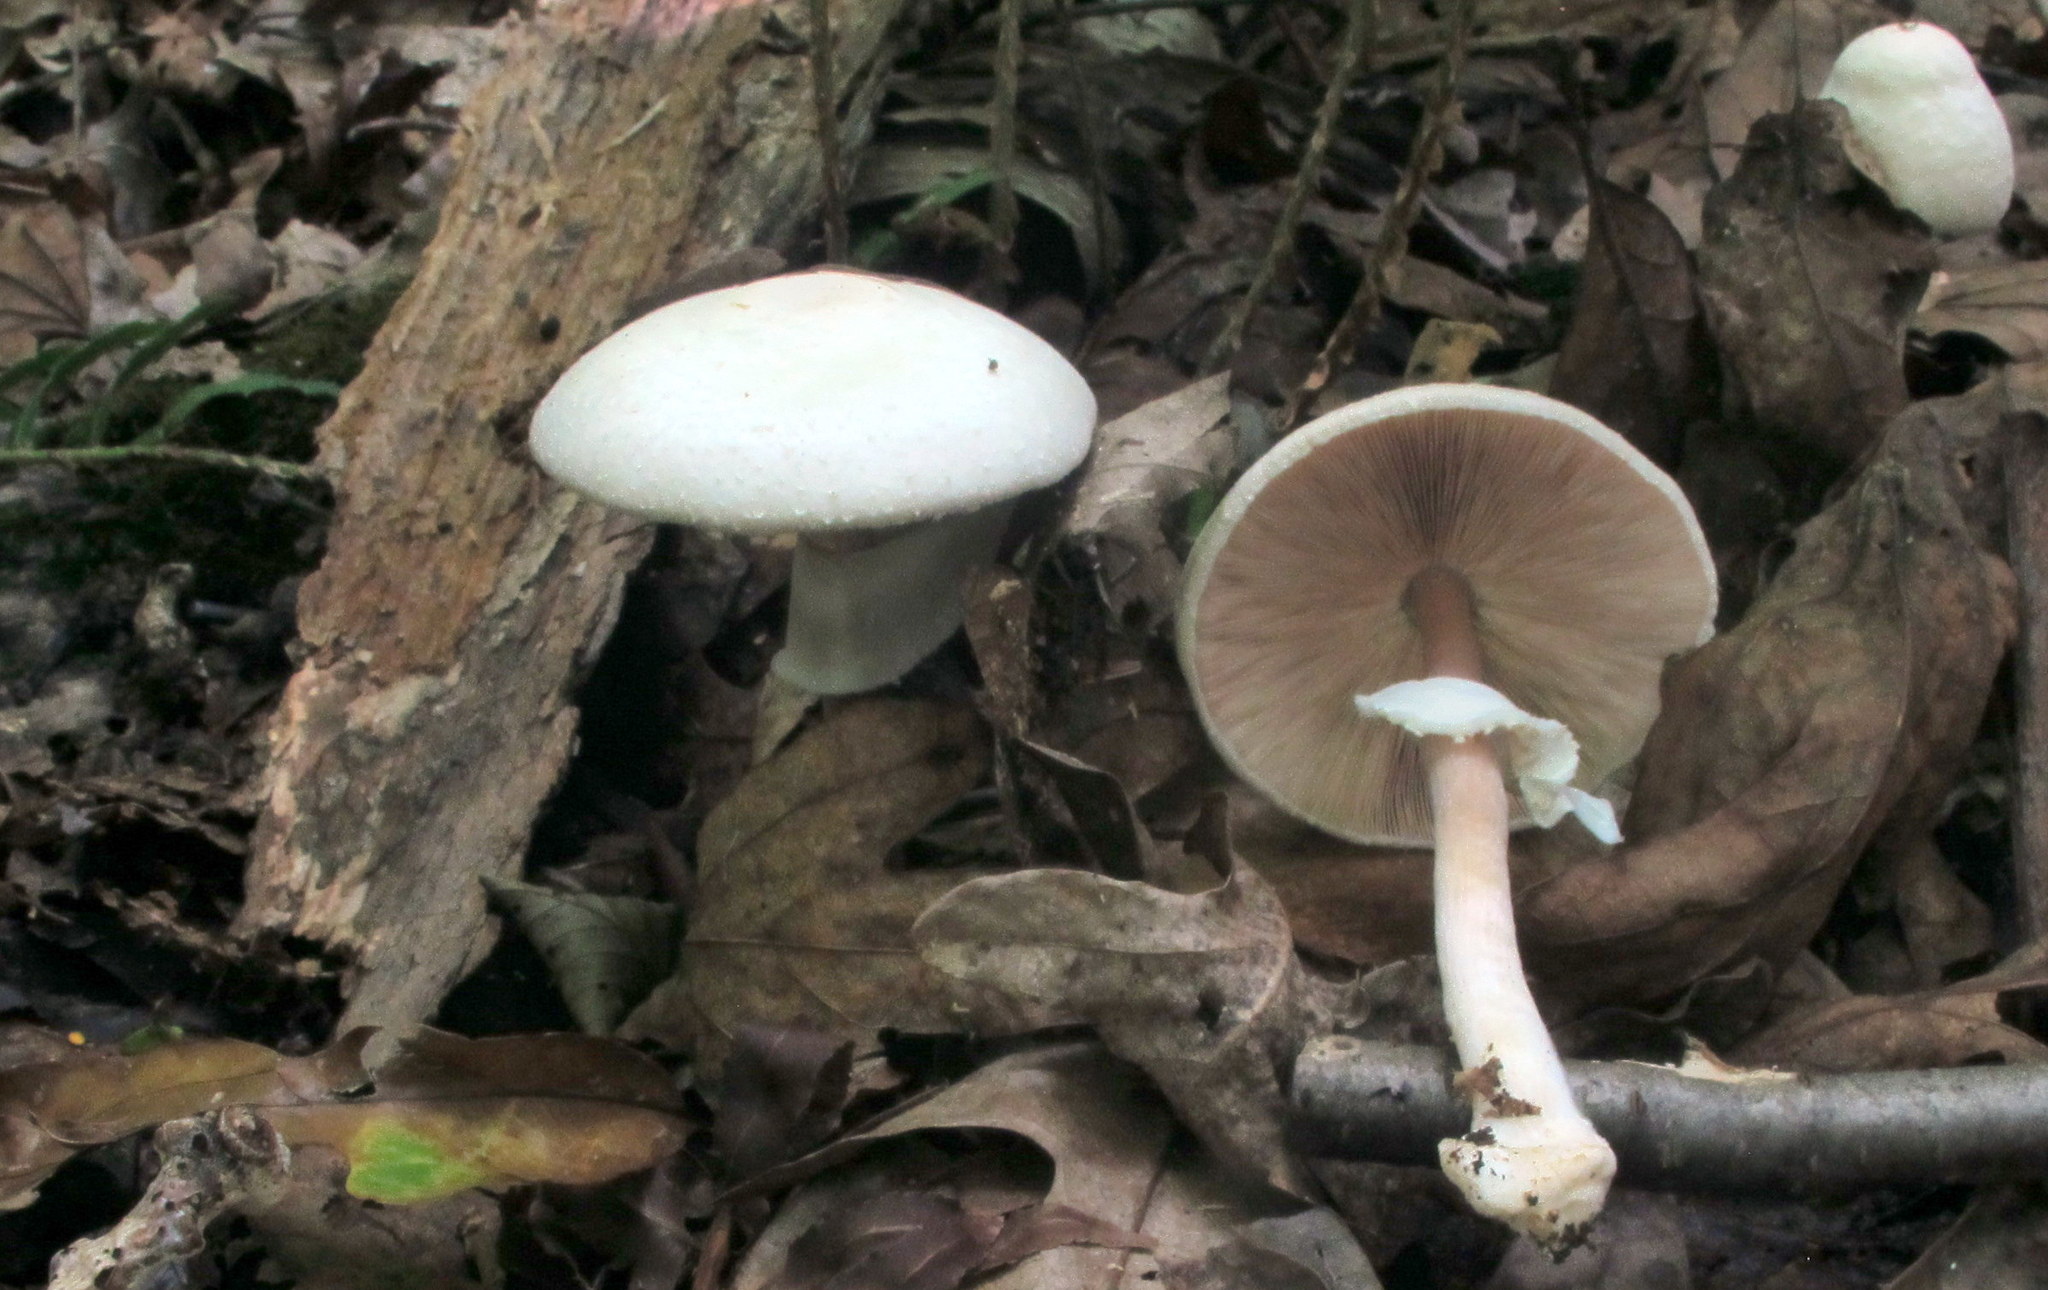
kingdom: Fungi
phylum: Basidiomycota
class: Agaricomycetes
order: Agaricales
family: Agaricaceae
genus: Agaricus
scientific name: Agaricus sylvicola
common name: Wood mushroom
